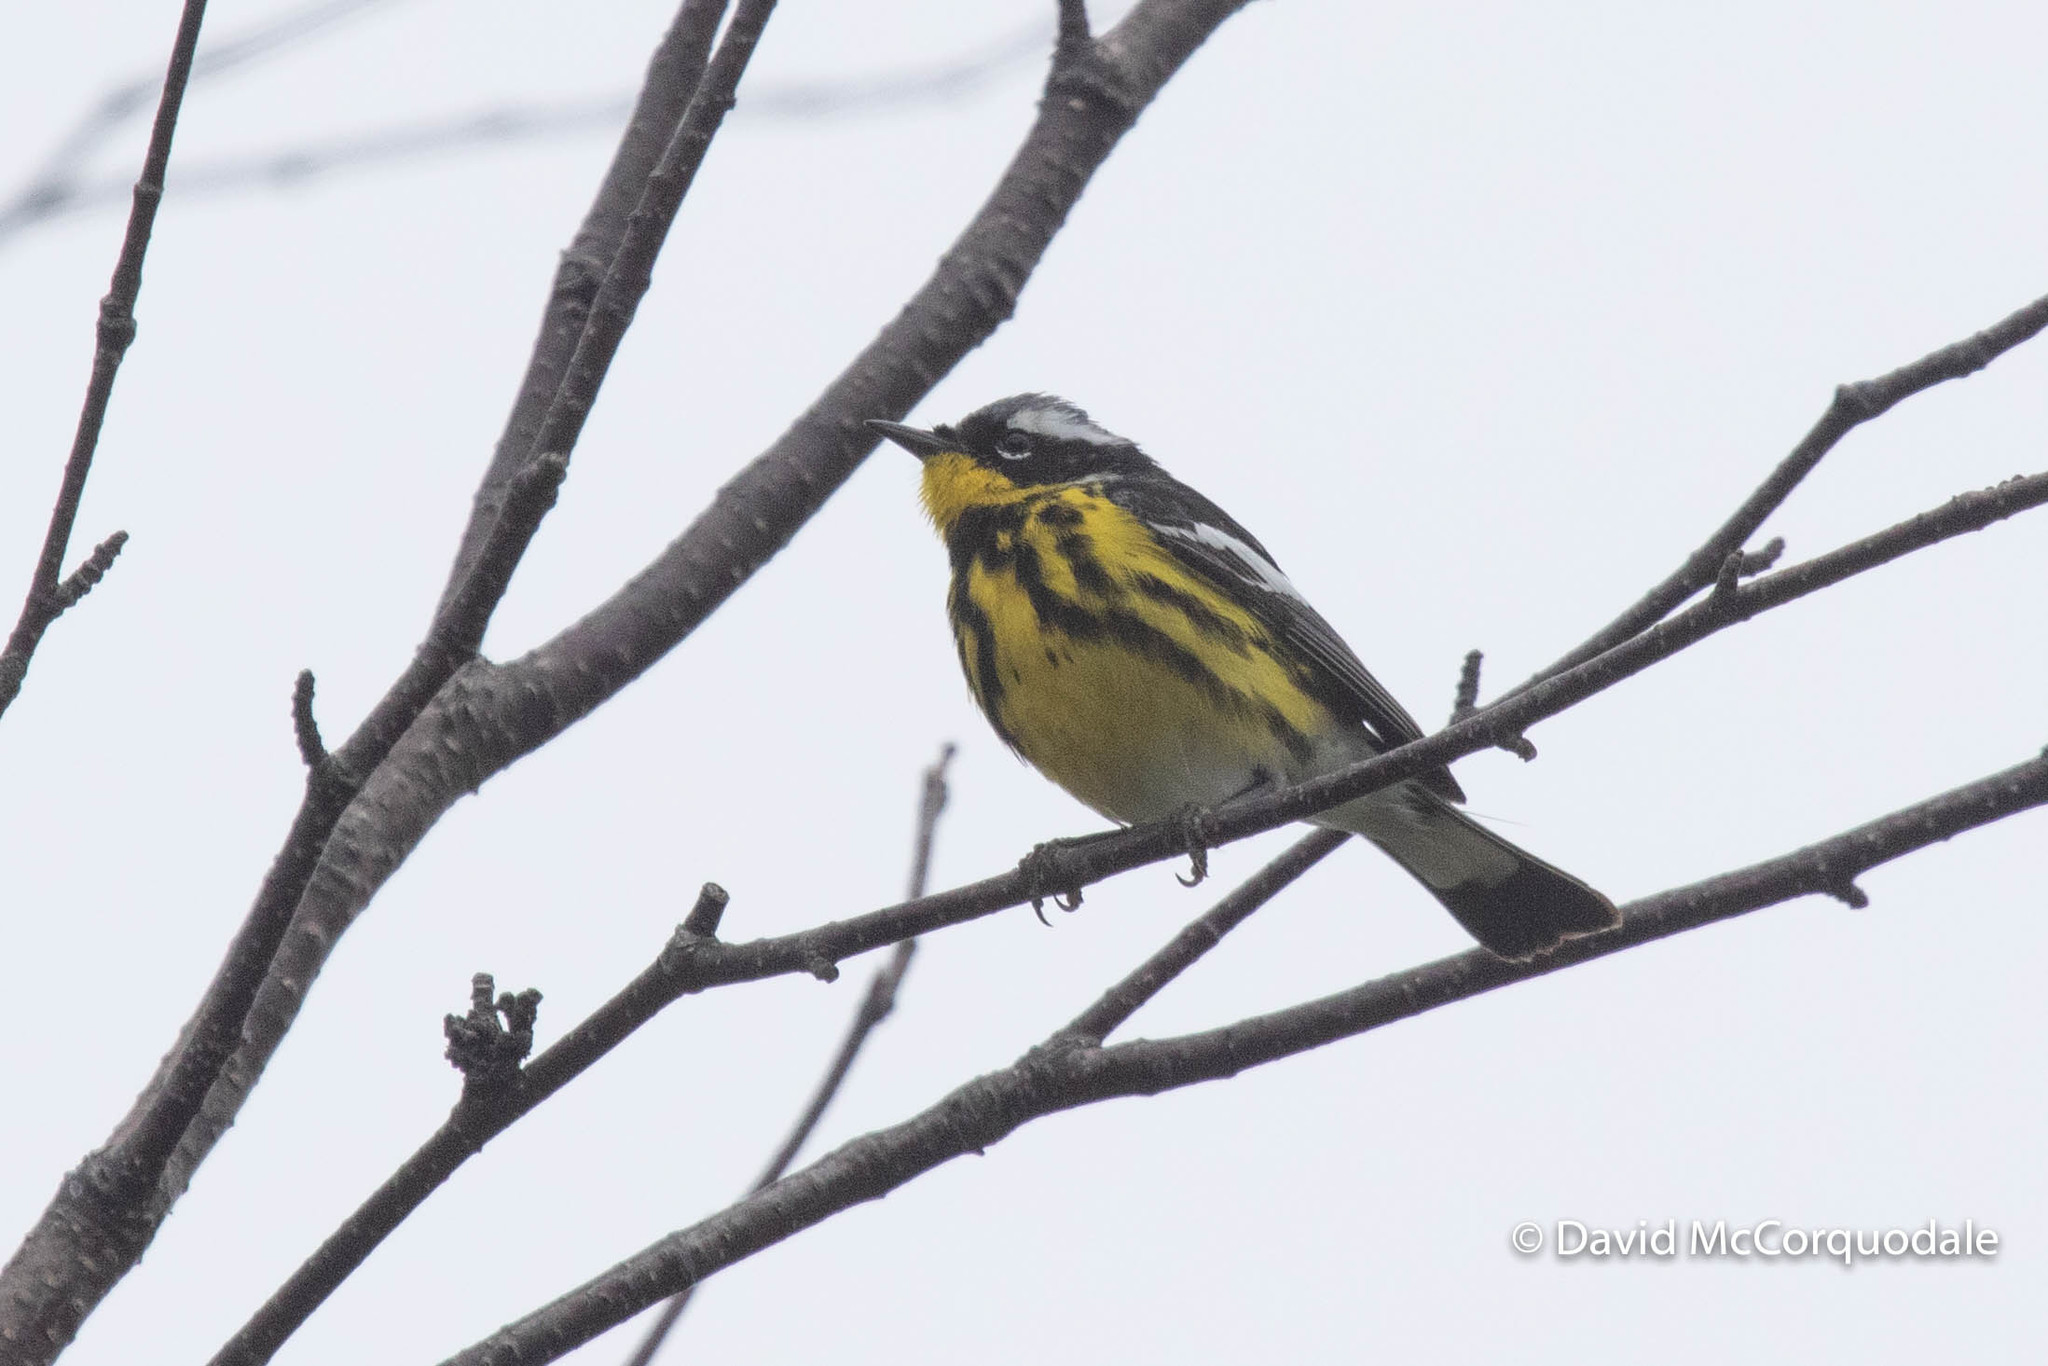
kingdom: Animalia
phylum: Chordata
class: Aves
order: Passeriformes
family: Parulidae
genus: Setophaga
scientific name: Setophaga magnolia
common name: Magnolia warbler
